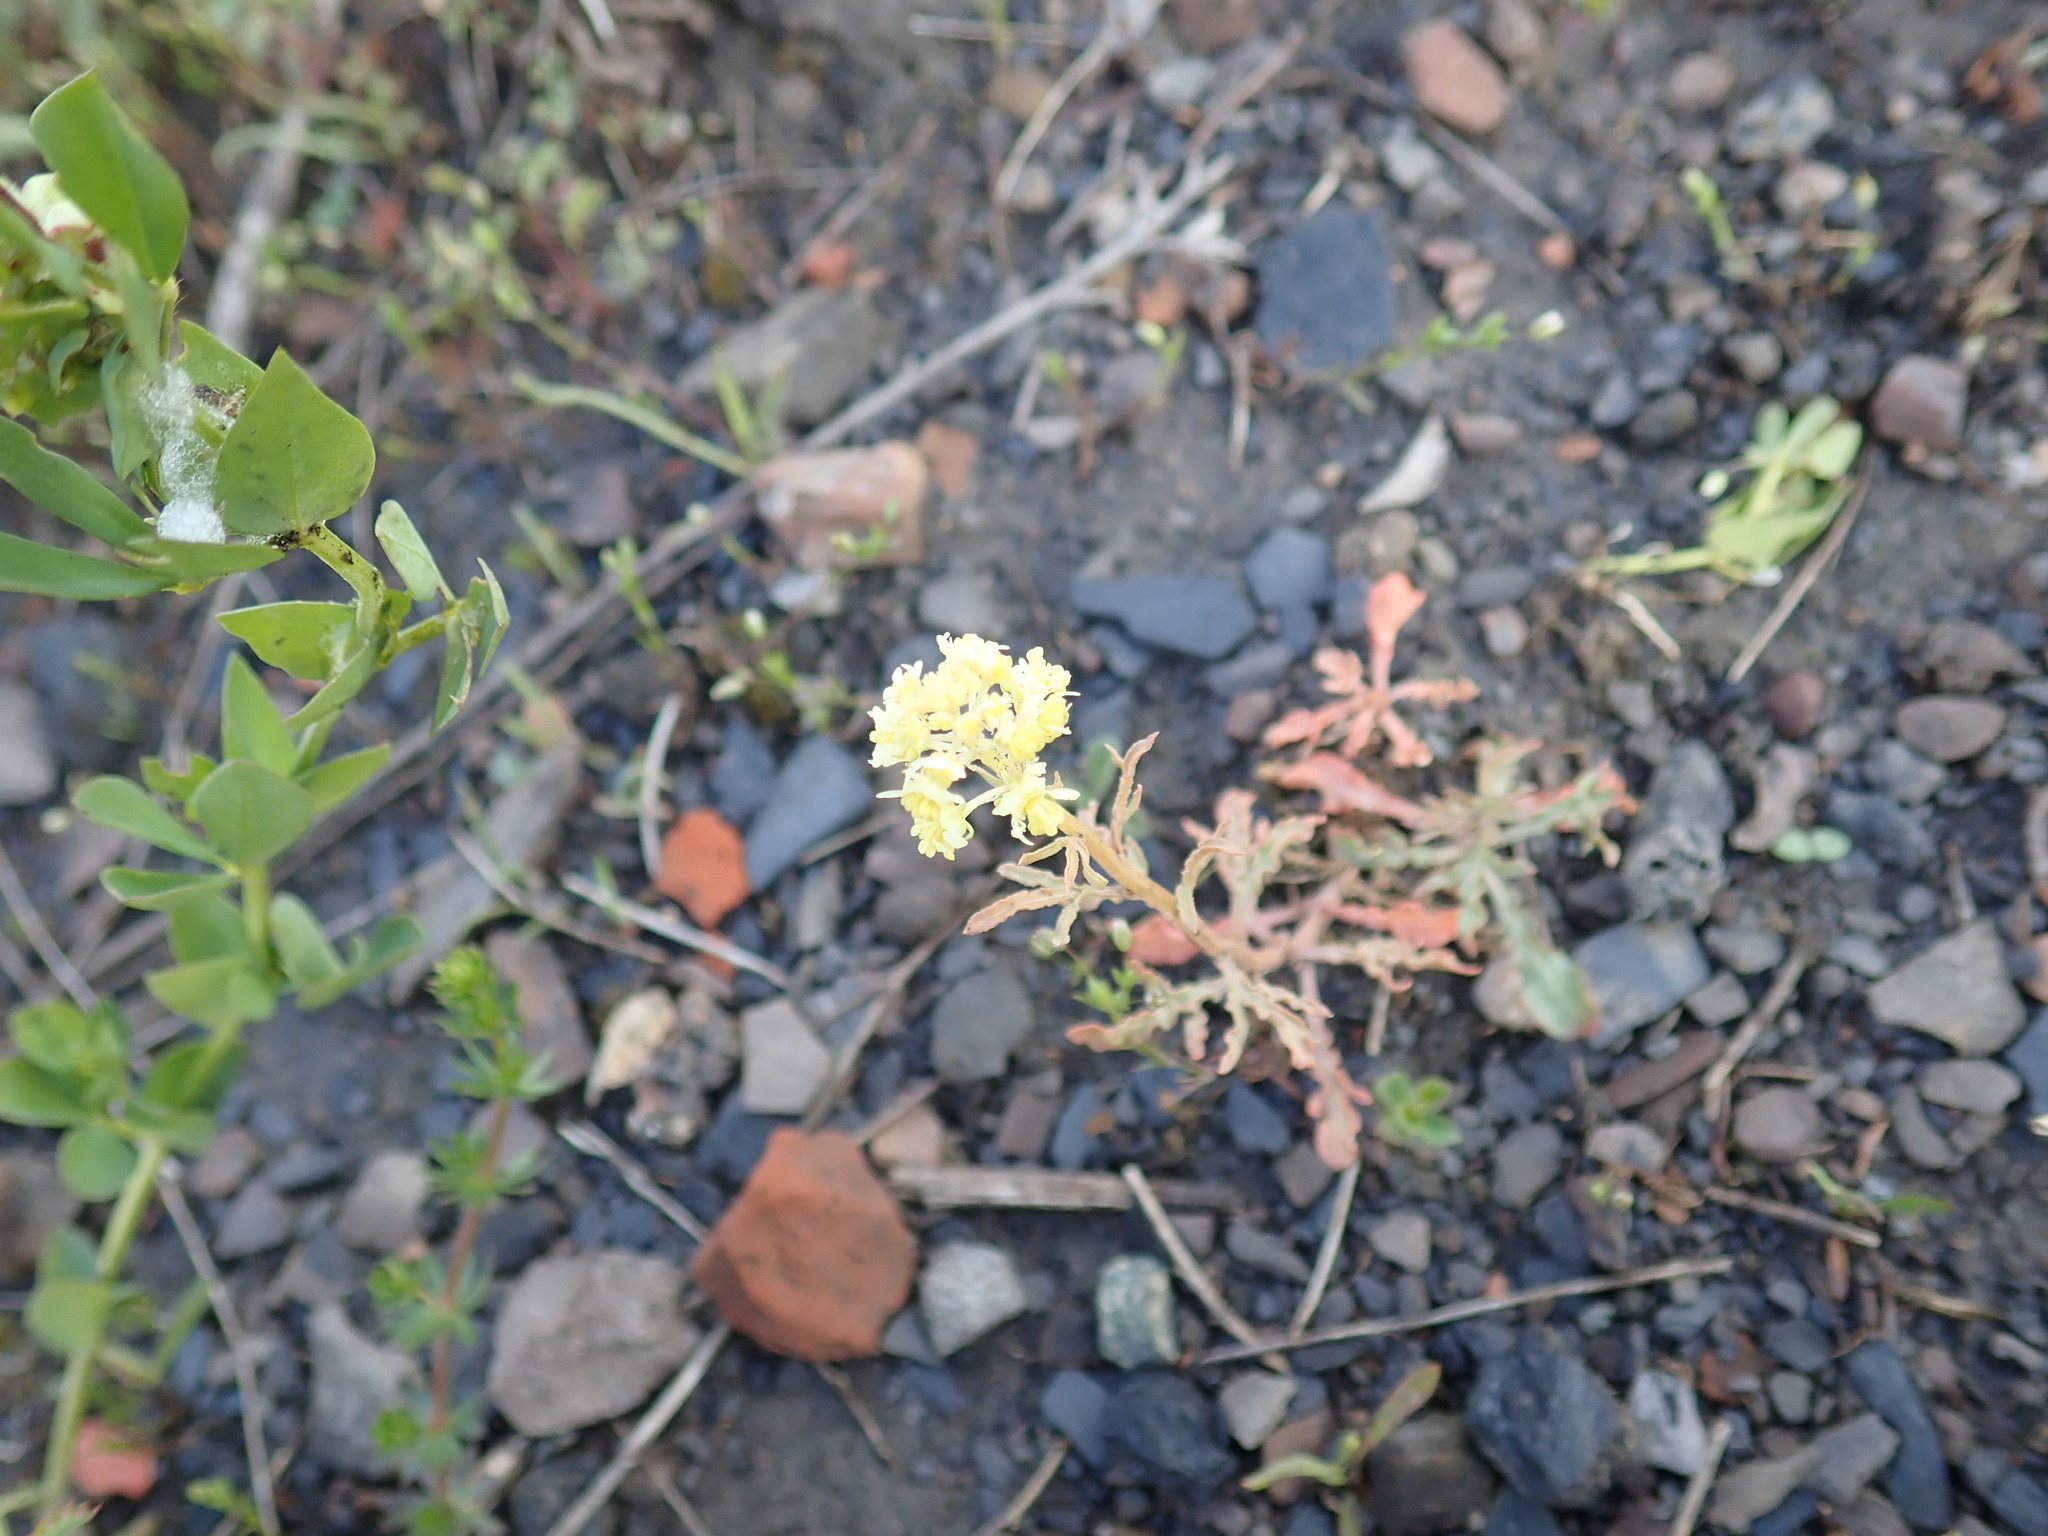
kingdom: Plantae
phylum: Tracheophyta
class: Magnoliopsida
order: Brassicales
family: Resedaceae
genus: Reseda
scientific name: Reseda lutea
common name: Wild mignonette
